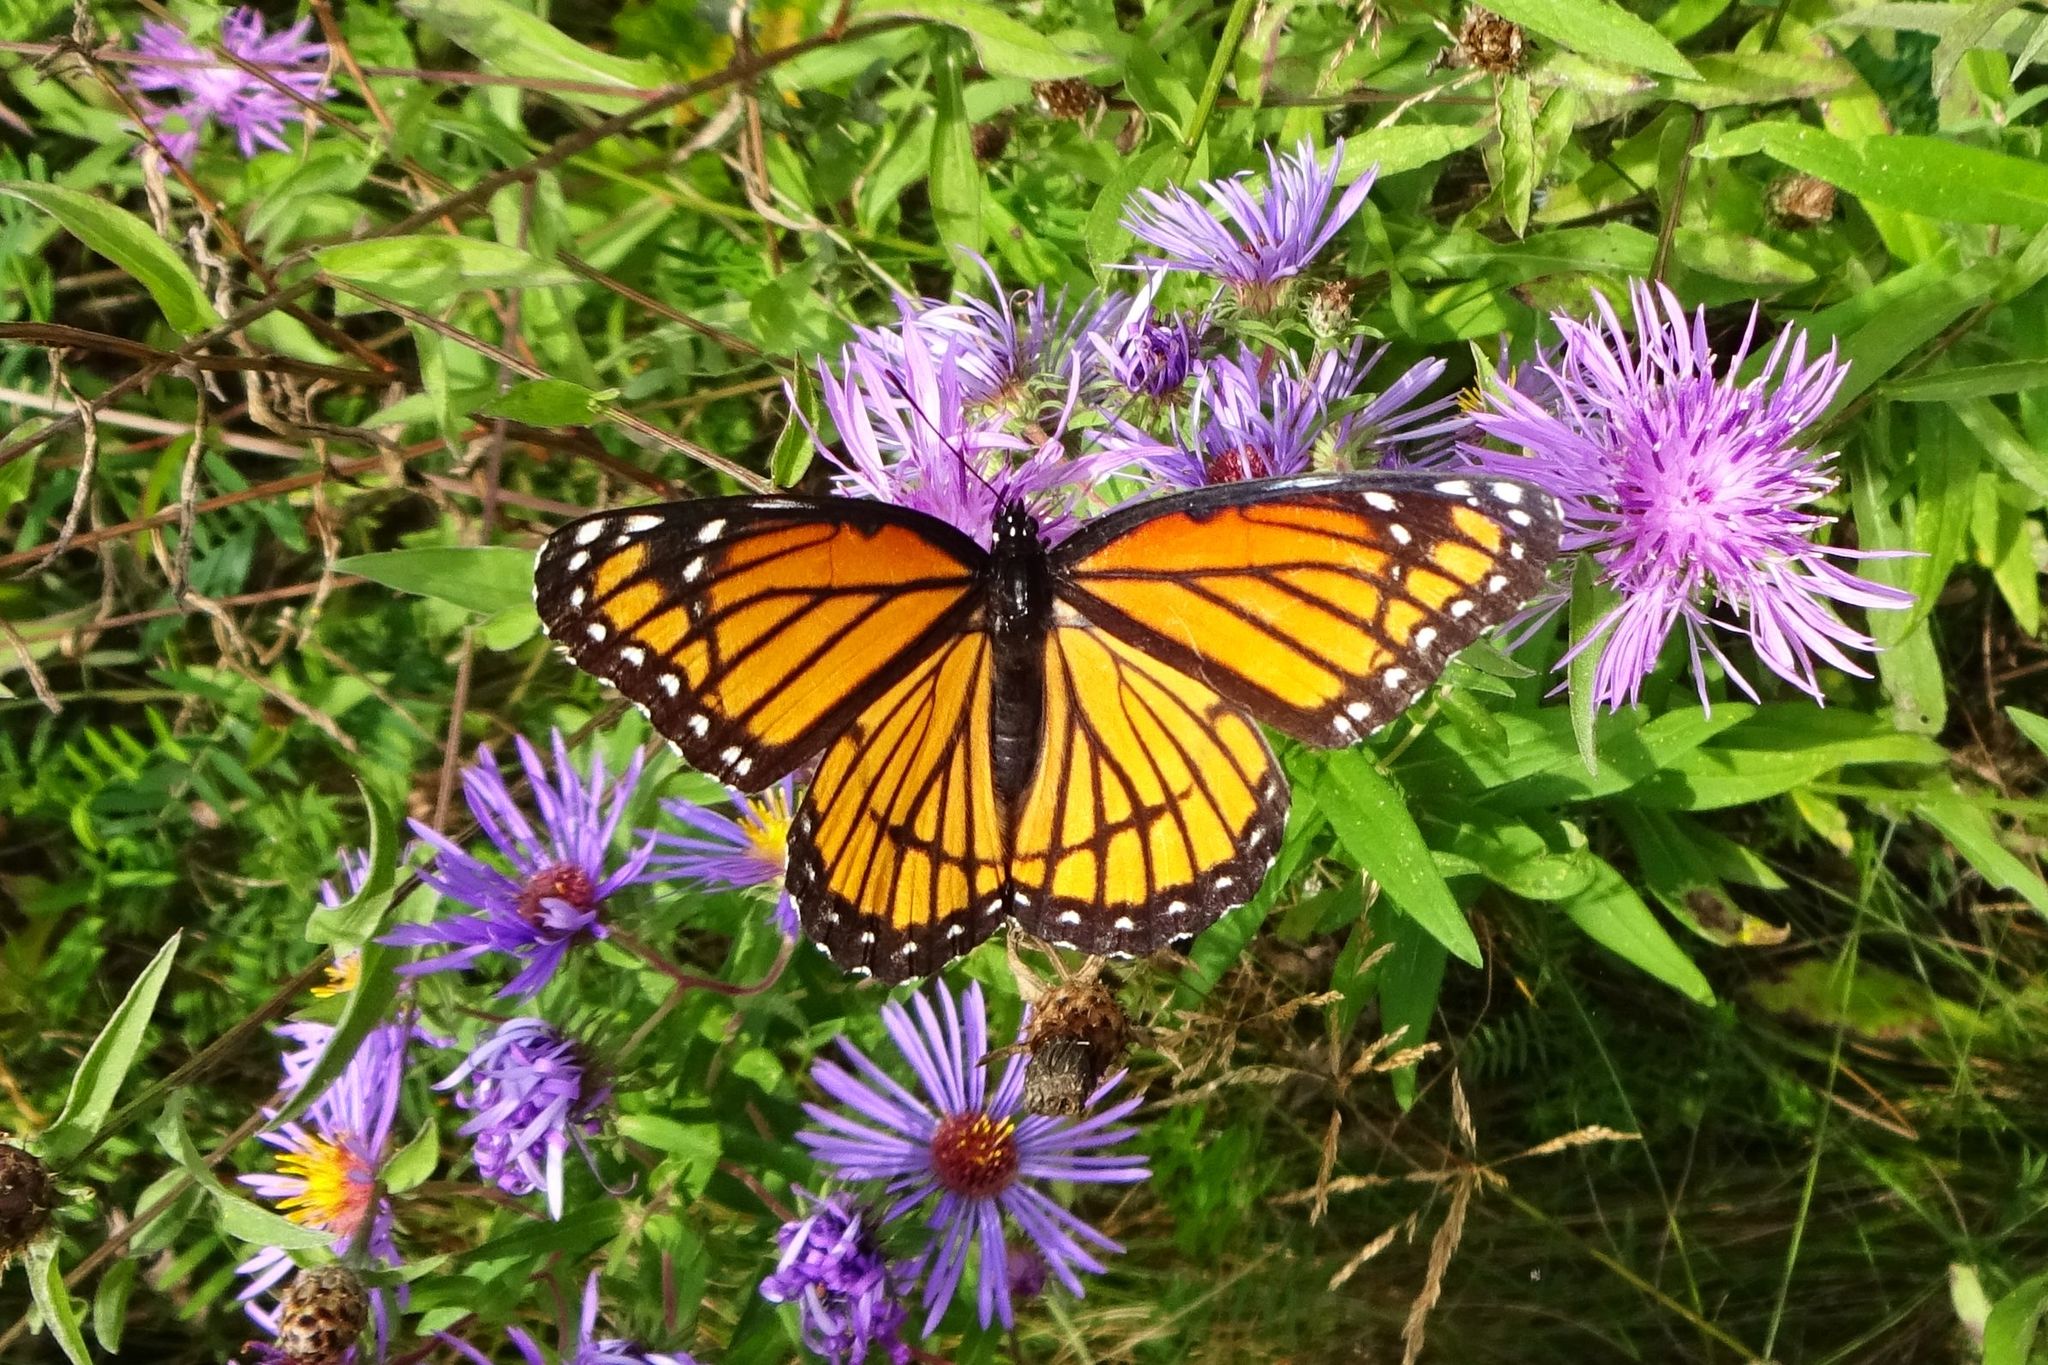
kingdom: Animalia
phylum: Arthropoda
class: Insecta
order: Lepidoptera
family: Nymphalidae
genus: Limenitis
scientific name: Limenitis archippus
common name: Viceroy
